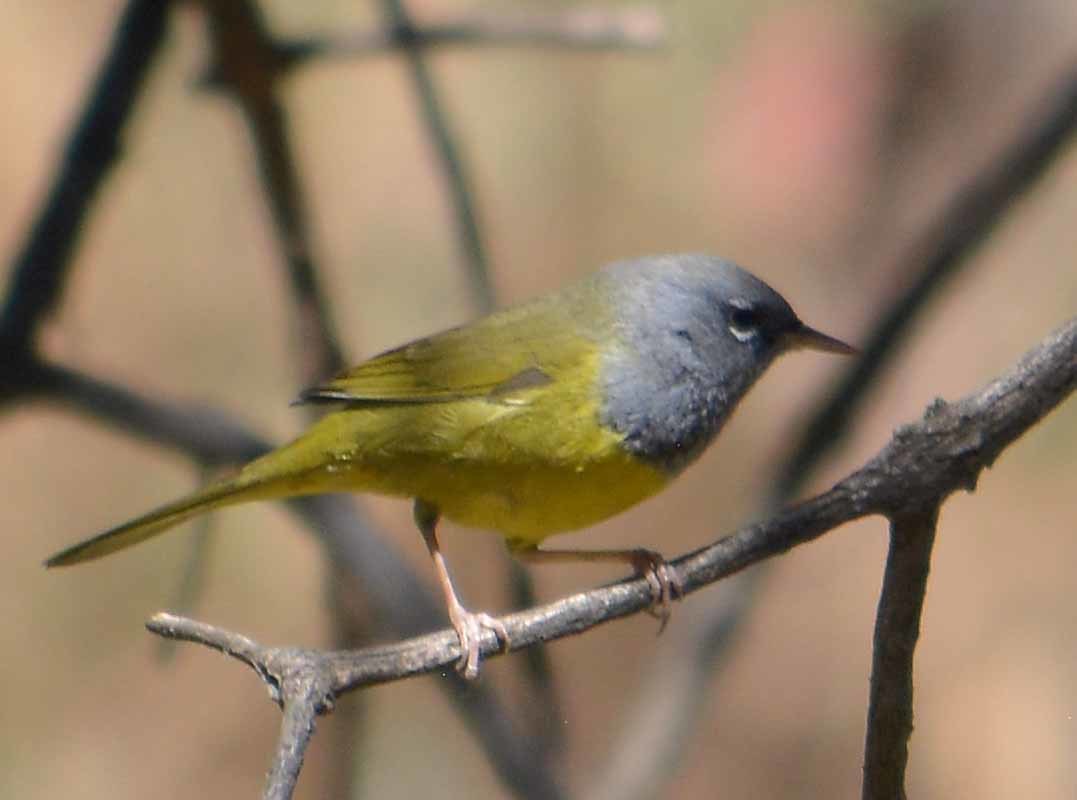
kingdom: Animalia
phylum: Chordata
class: Aves
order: Passeriformes
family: Parulidae
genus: Geothlypis
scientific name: Geothlypis tolmiei
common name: Macgillivray's warbler
